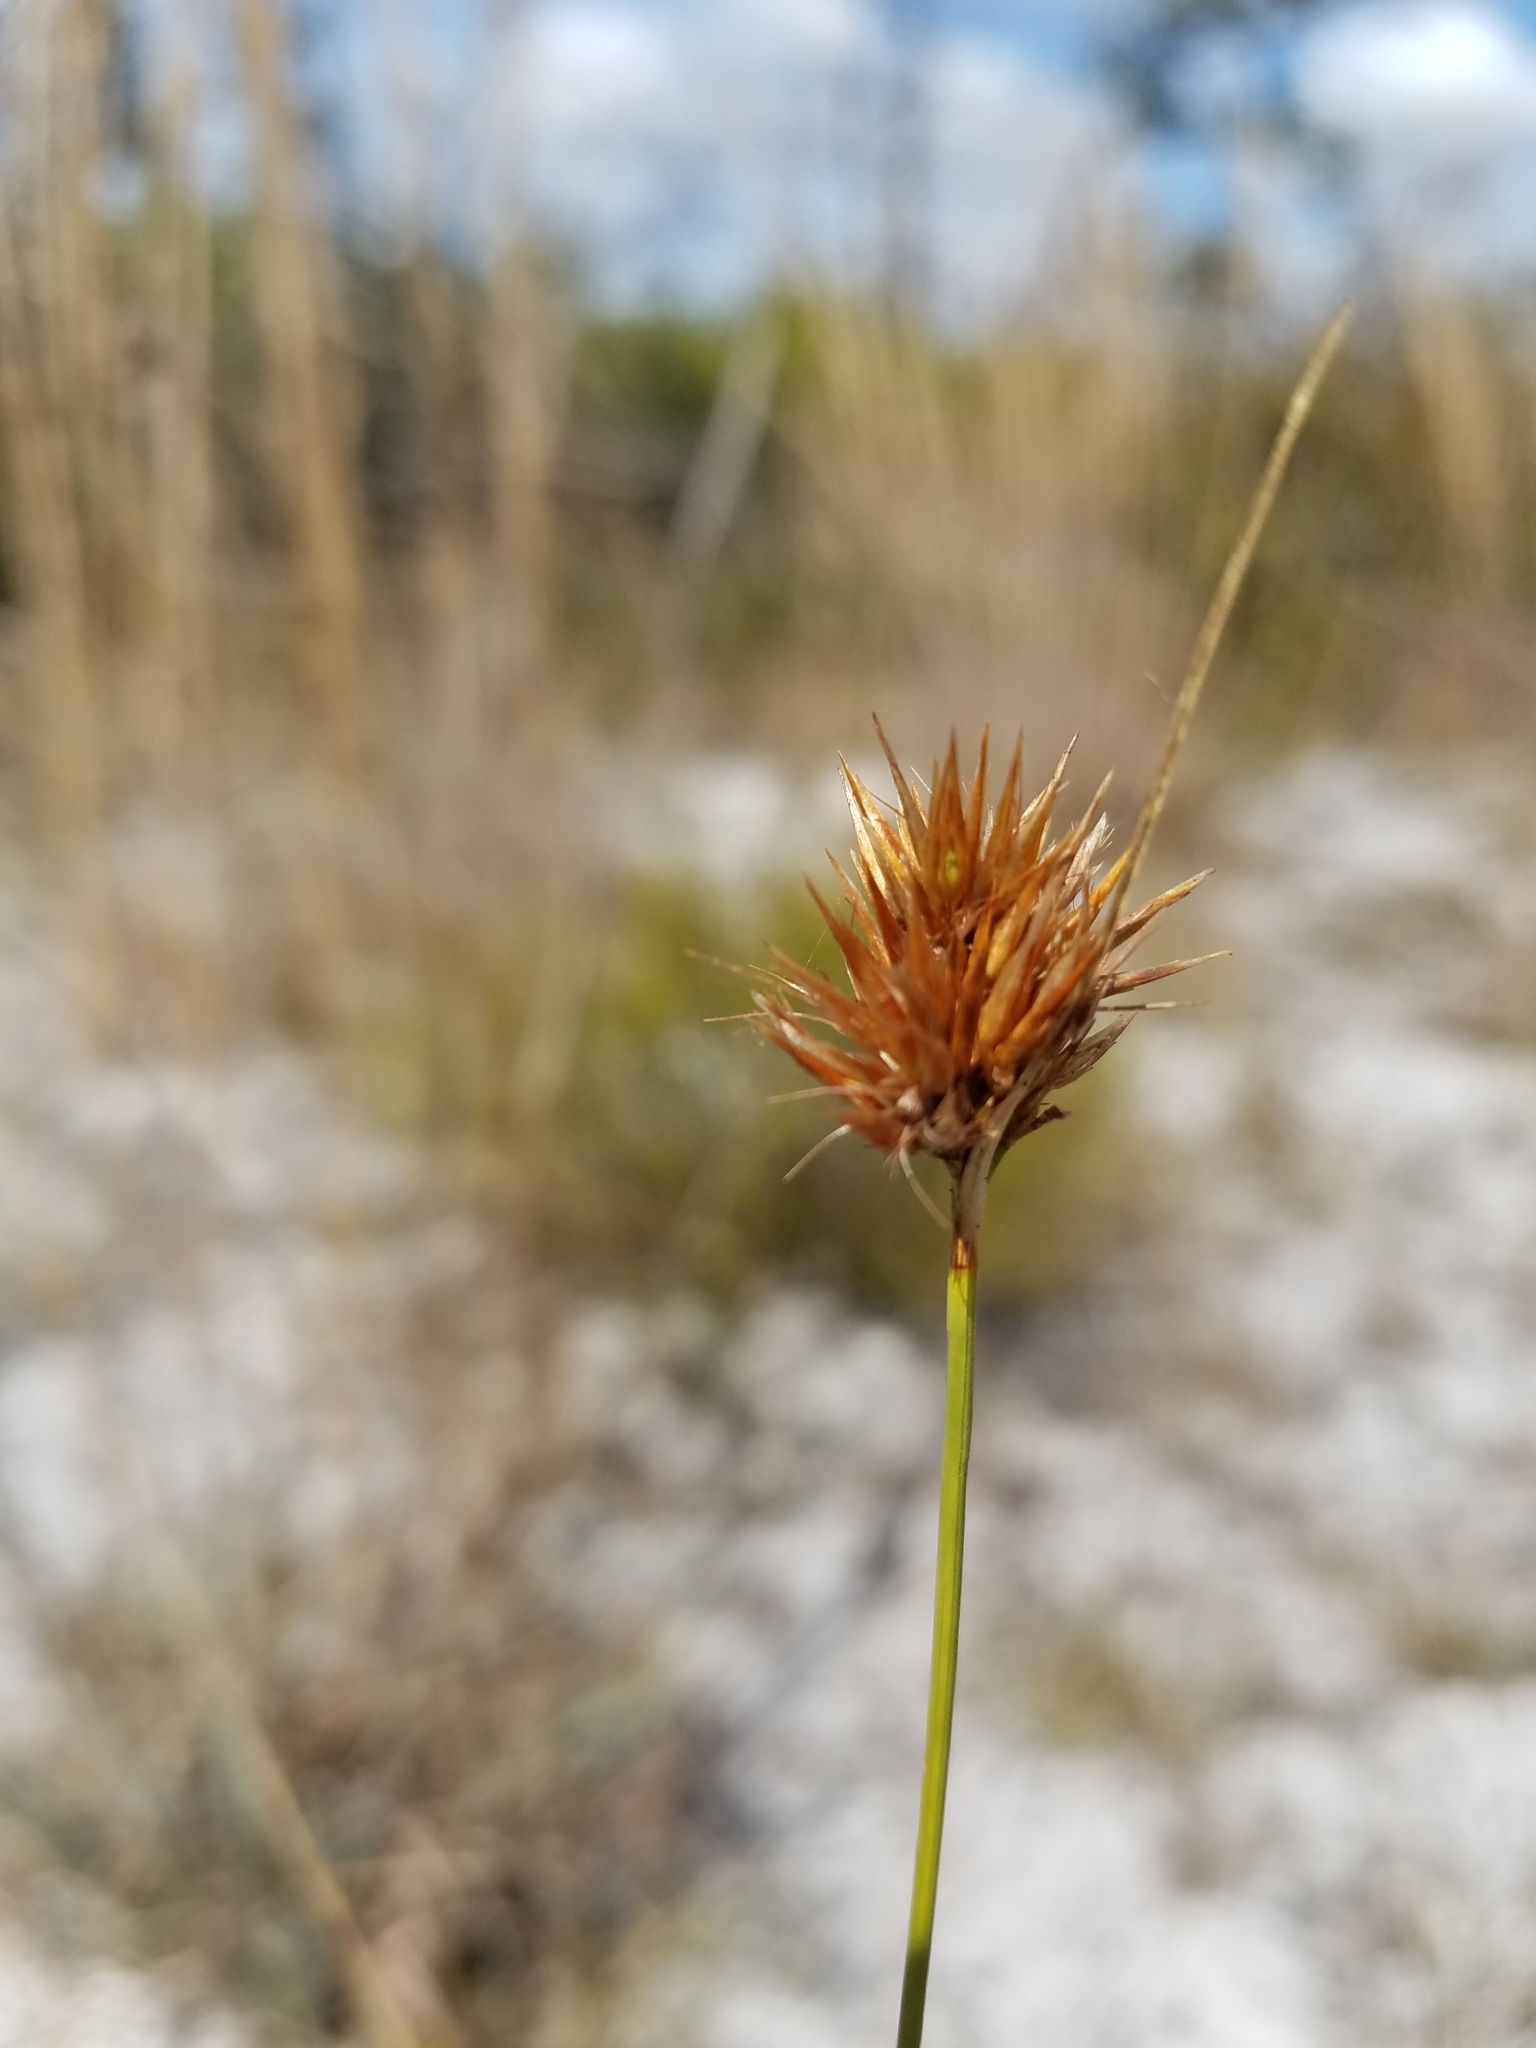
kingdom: Plantae
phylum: Tracheophyta
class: Liliopsida
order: Poales
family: Cyperaceae
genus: Rhynchospora
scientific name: Rhynchospora megaplumosa
